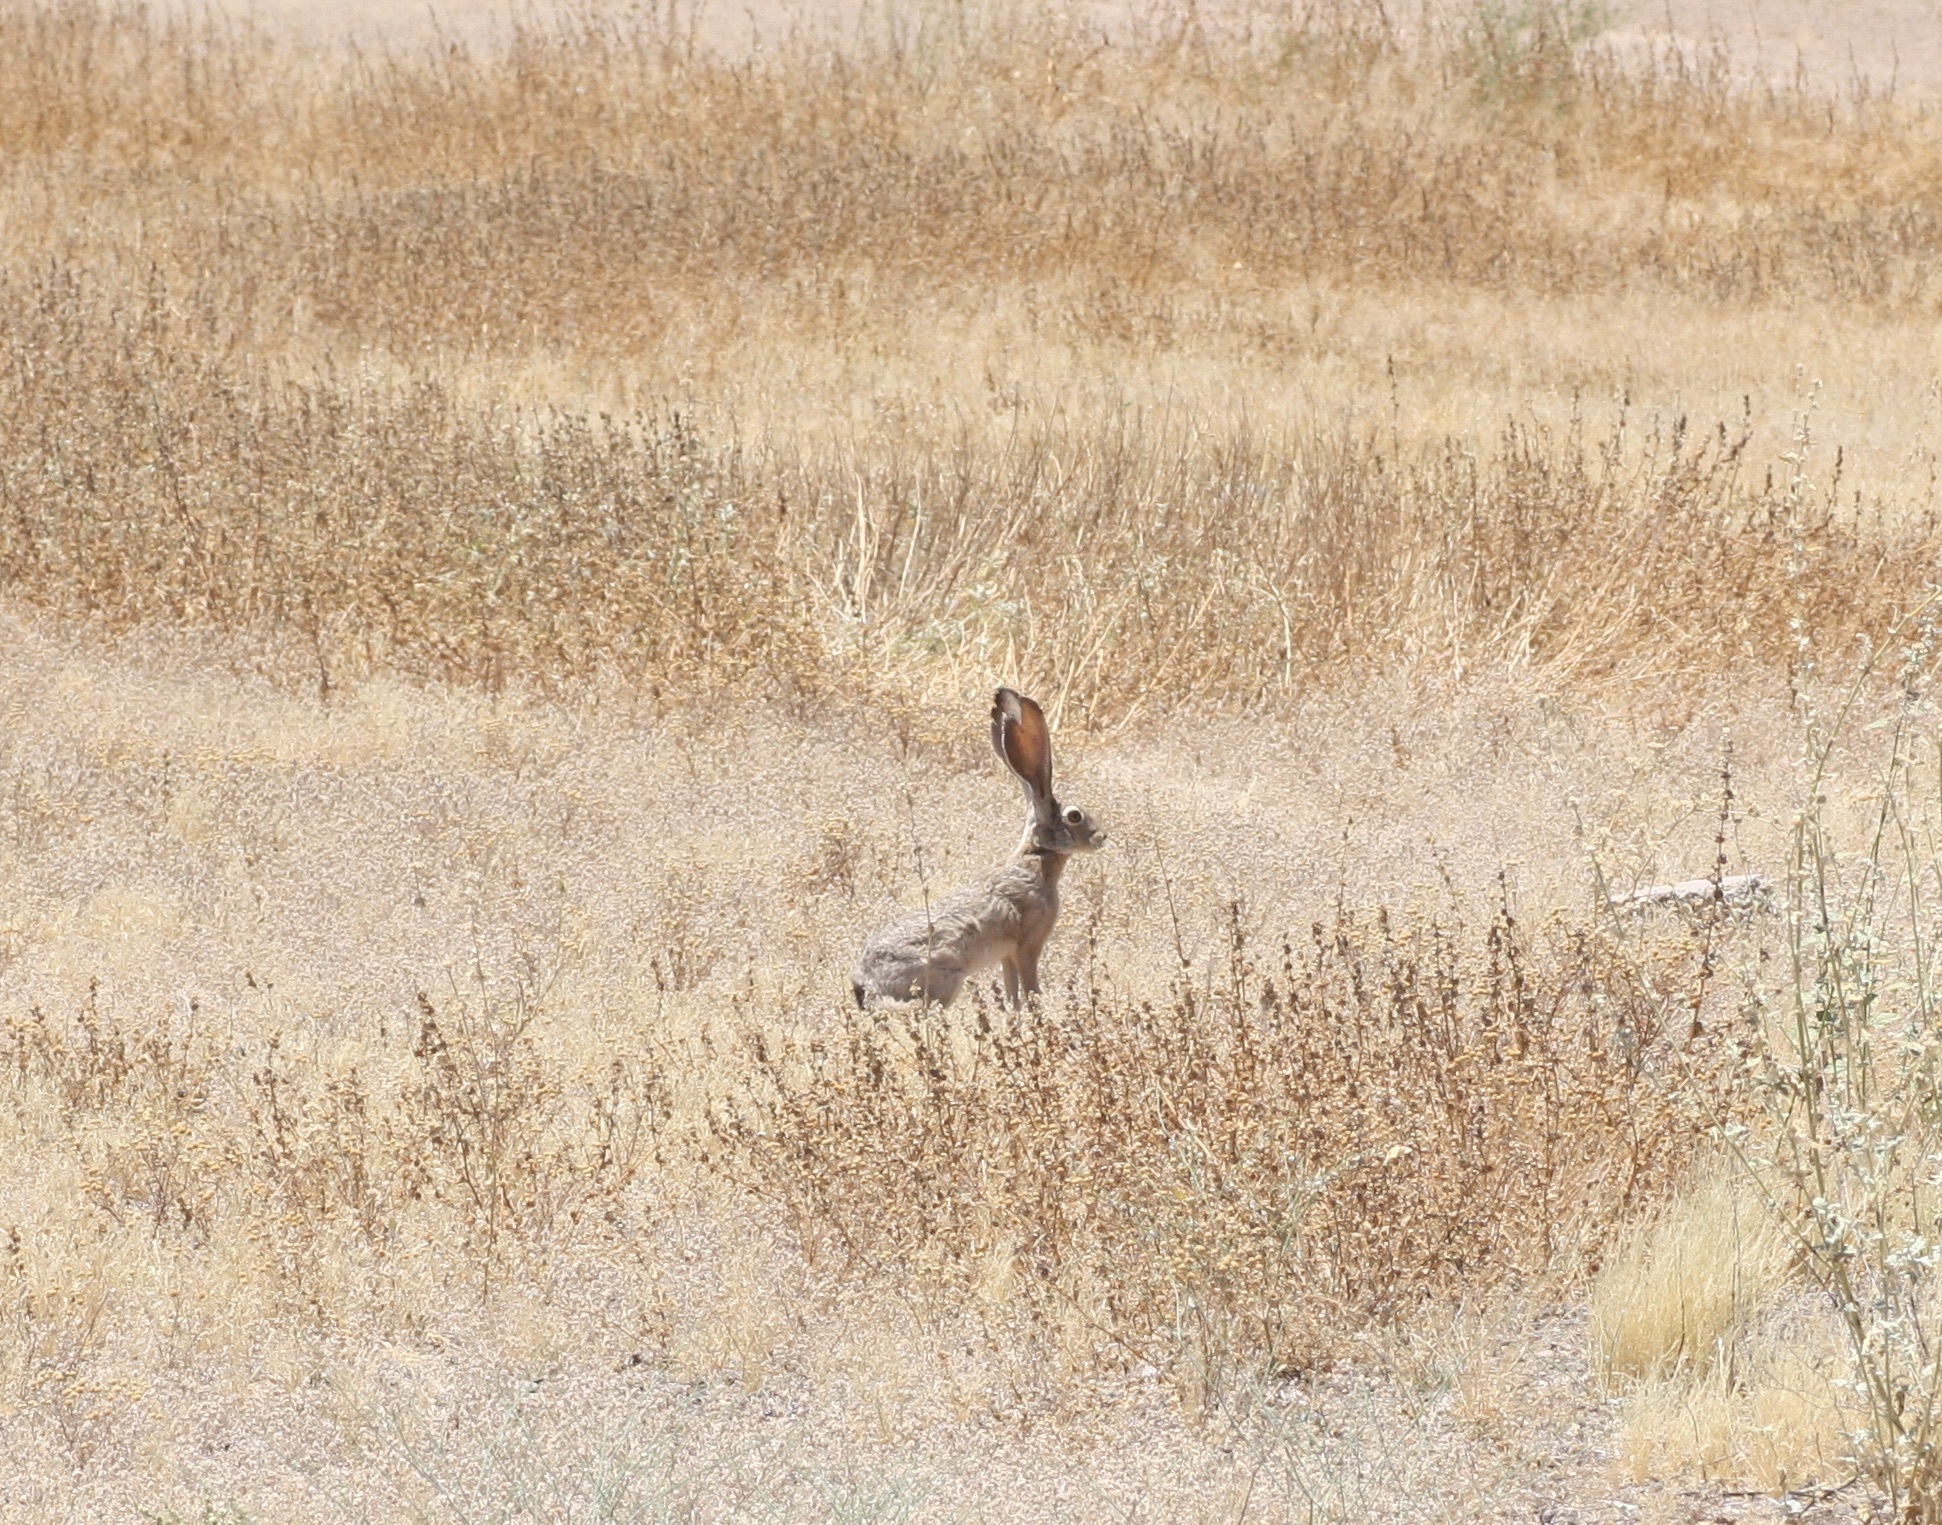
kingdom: Animalia
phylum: Chordata
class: Mammalia
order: Lagomorpha
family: Leporidae
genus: Lepus
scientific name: Lepus californicus
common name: Black-tailed jackrabbit
